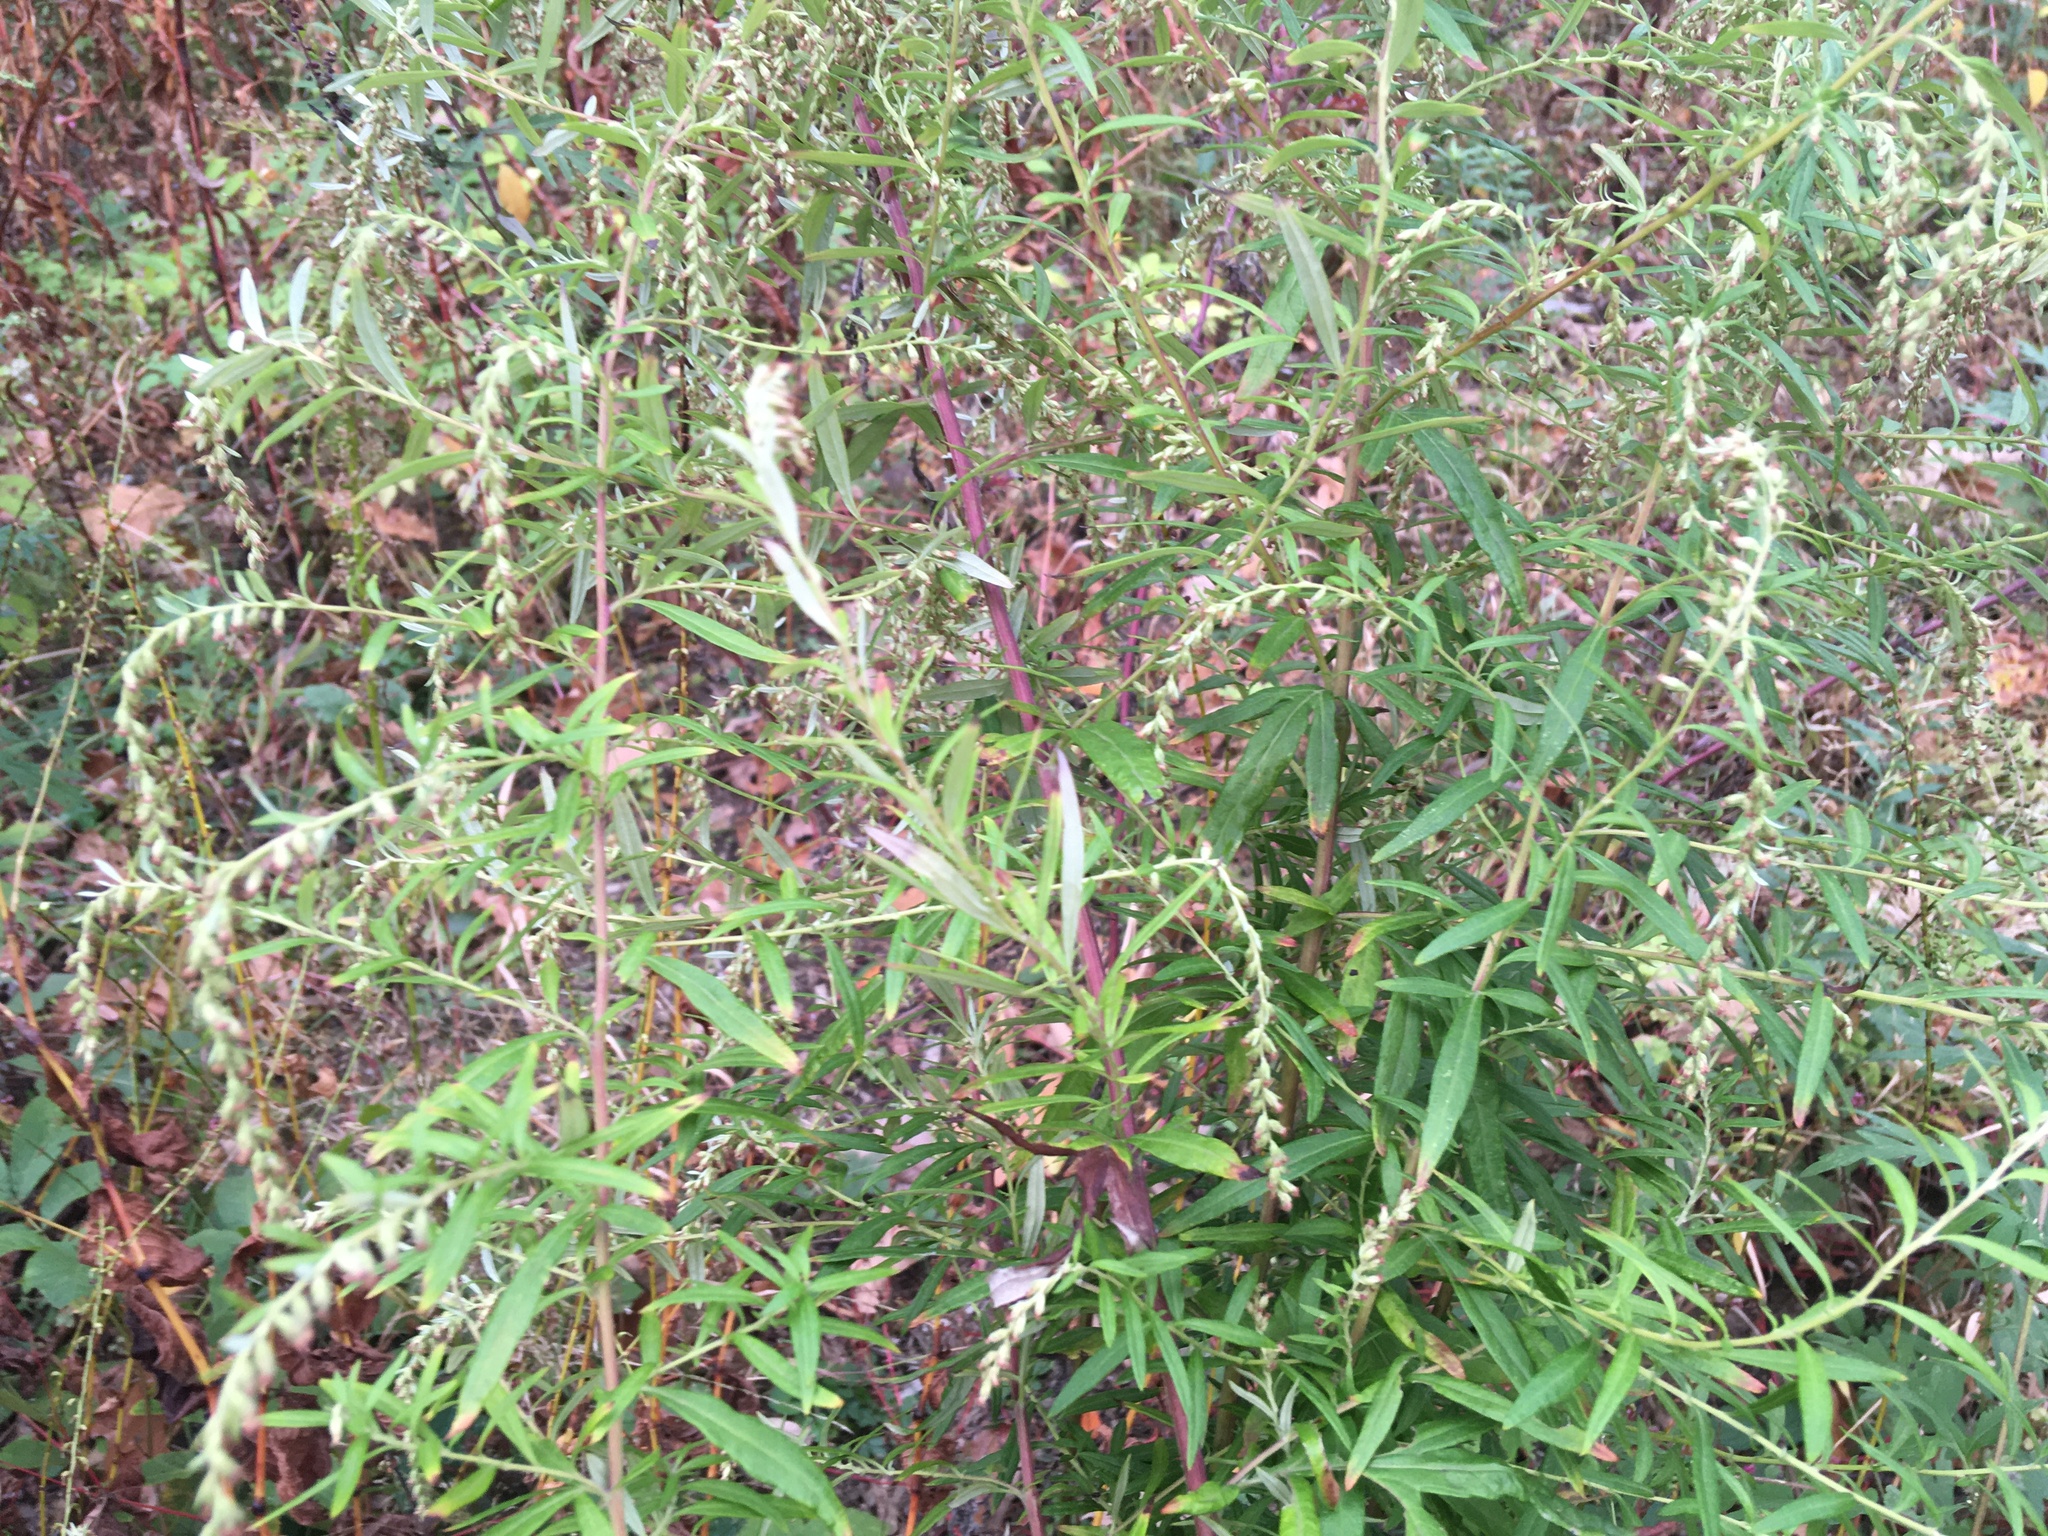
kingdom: Plantae
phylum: Tracheophyta
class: Magnoliopsida
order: Asterales
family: Asteraceae
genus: Artemisia
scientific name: Artemisia vulgaris
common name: Mugwort
